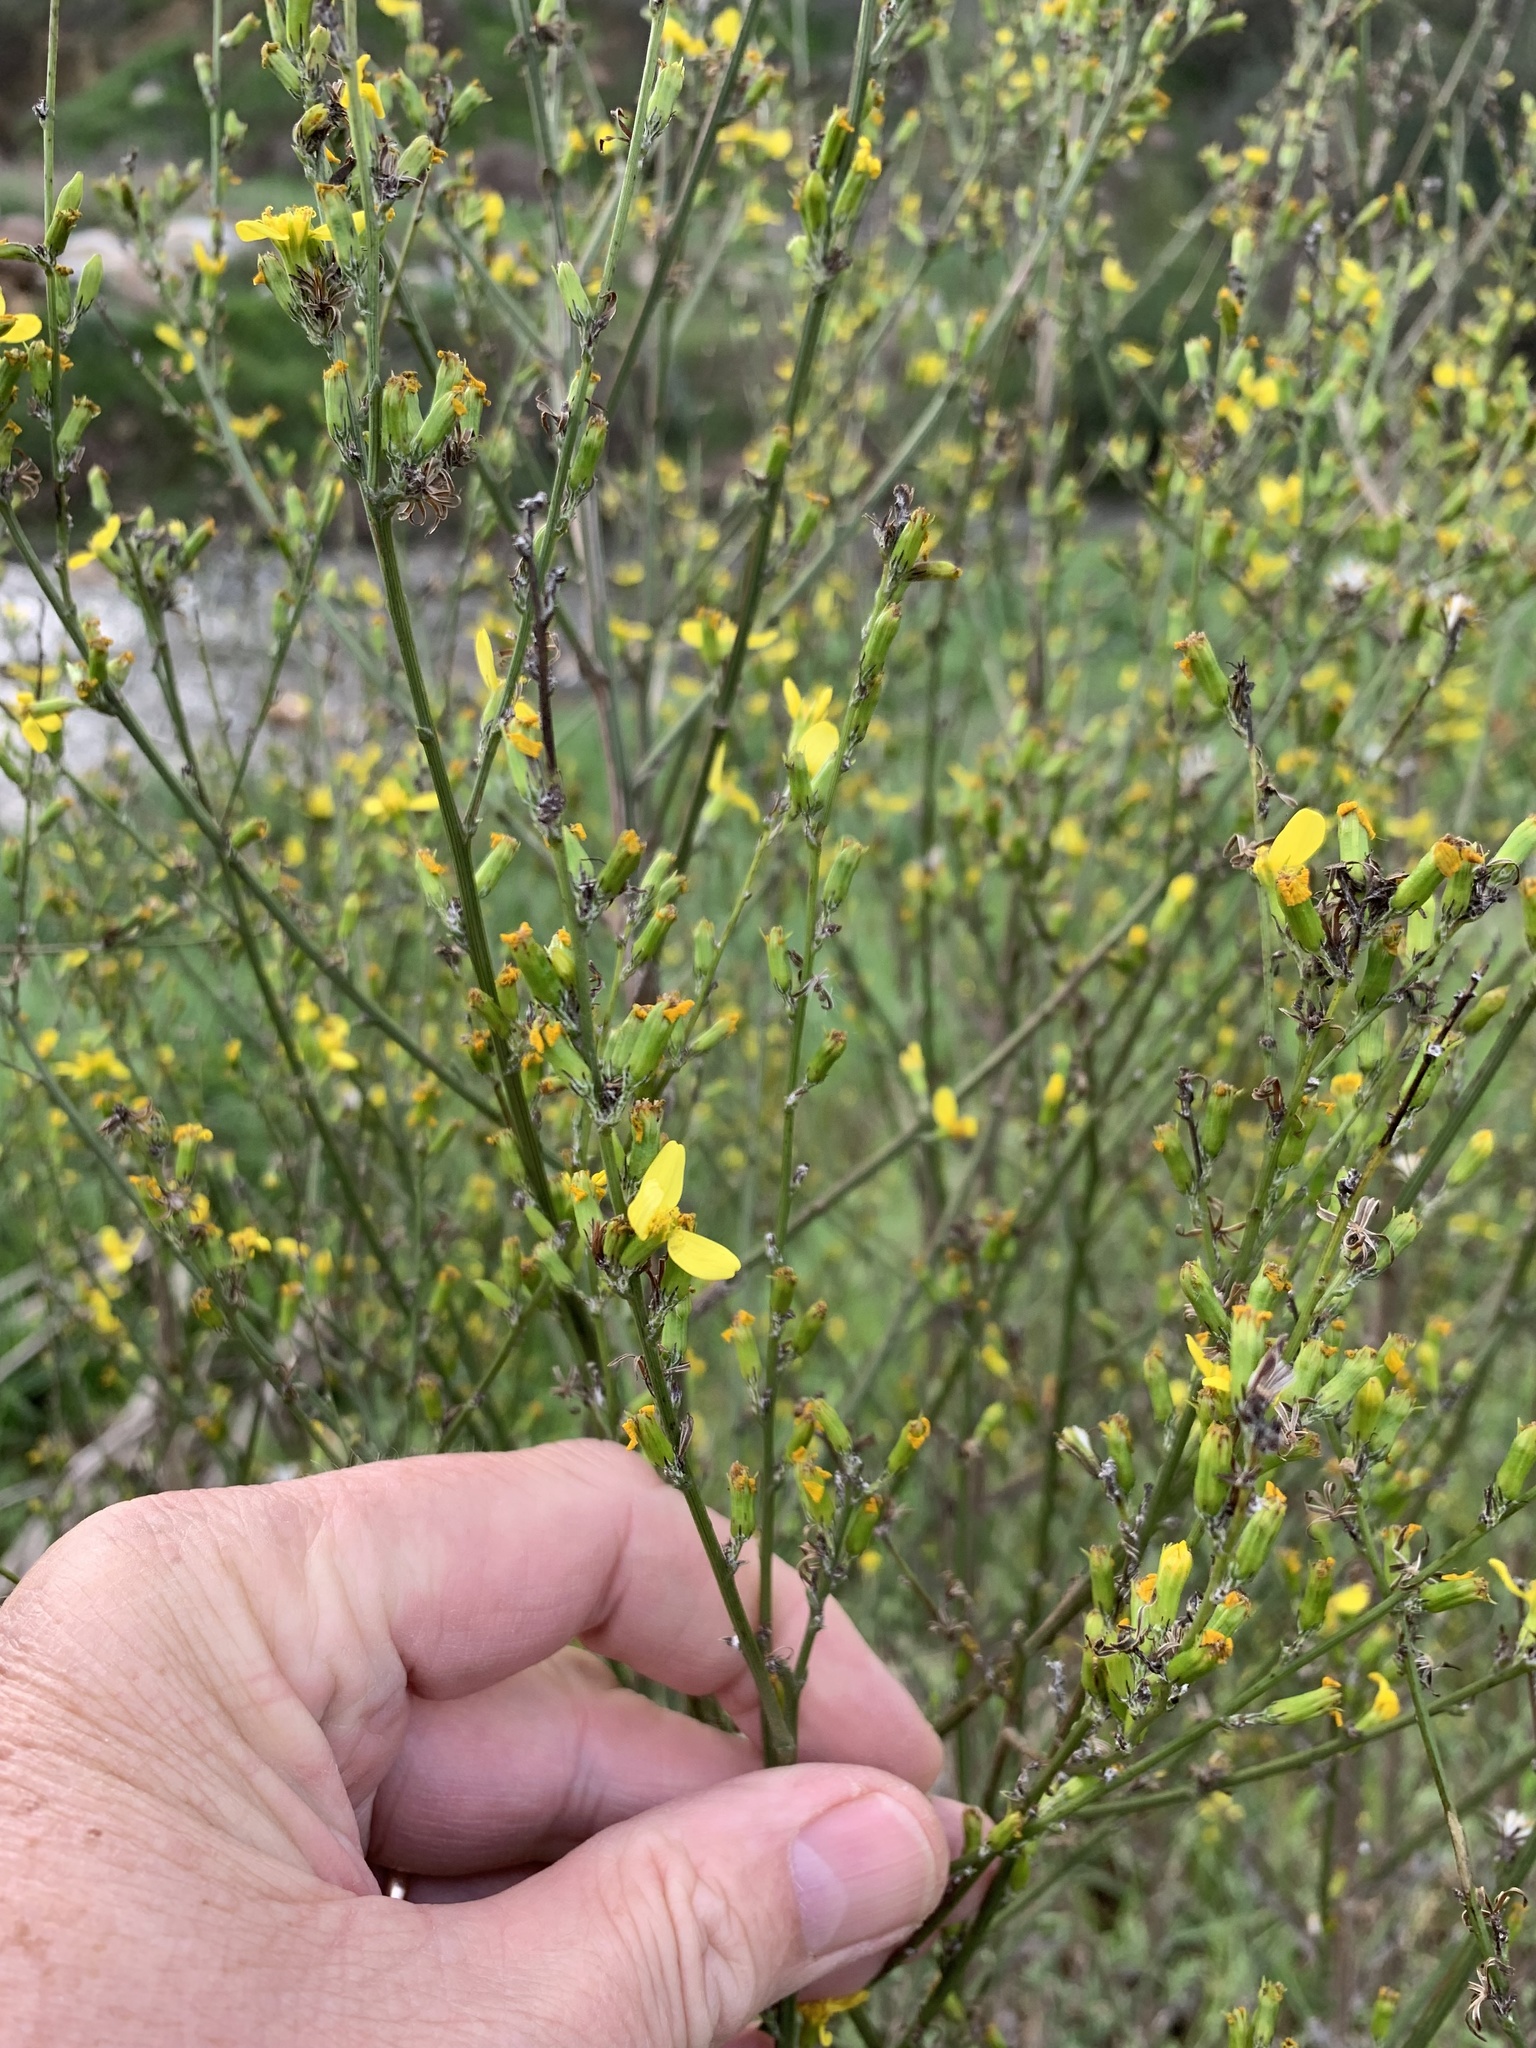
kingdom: Plantae
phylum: Tracheophyta
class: Magnoliopsida
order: Asterales
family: Asteraceae
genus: Senecio
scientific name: Senecio pubigerus
